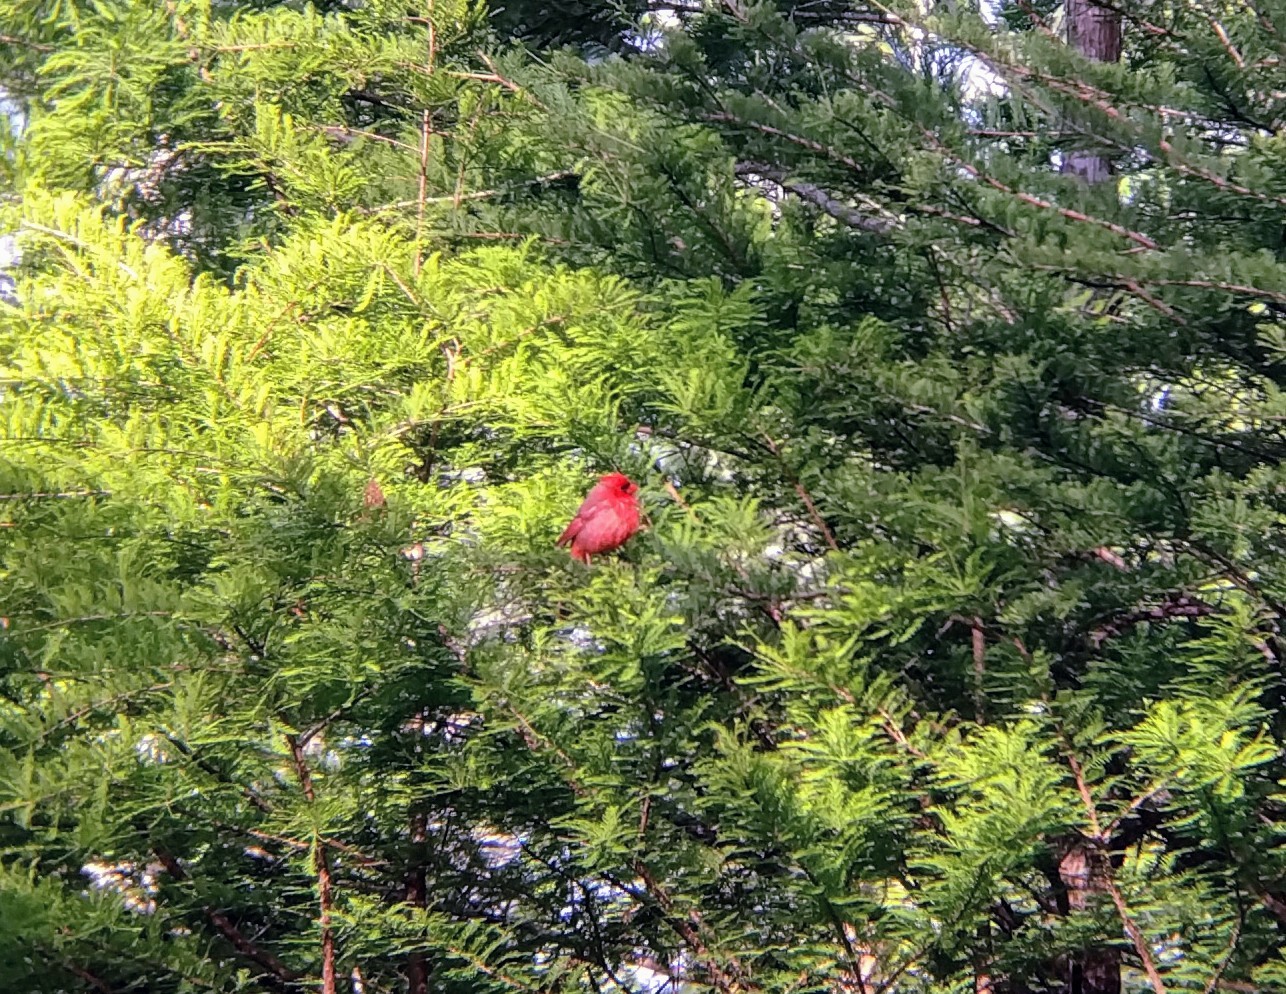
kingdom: Animalia
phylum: Chordata
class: Aves
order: Passeriformes
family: Cardinalidae
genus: Cardinalis
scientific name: Cardinalis cardinalis
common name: Northern cardinal
